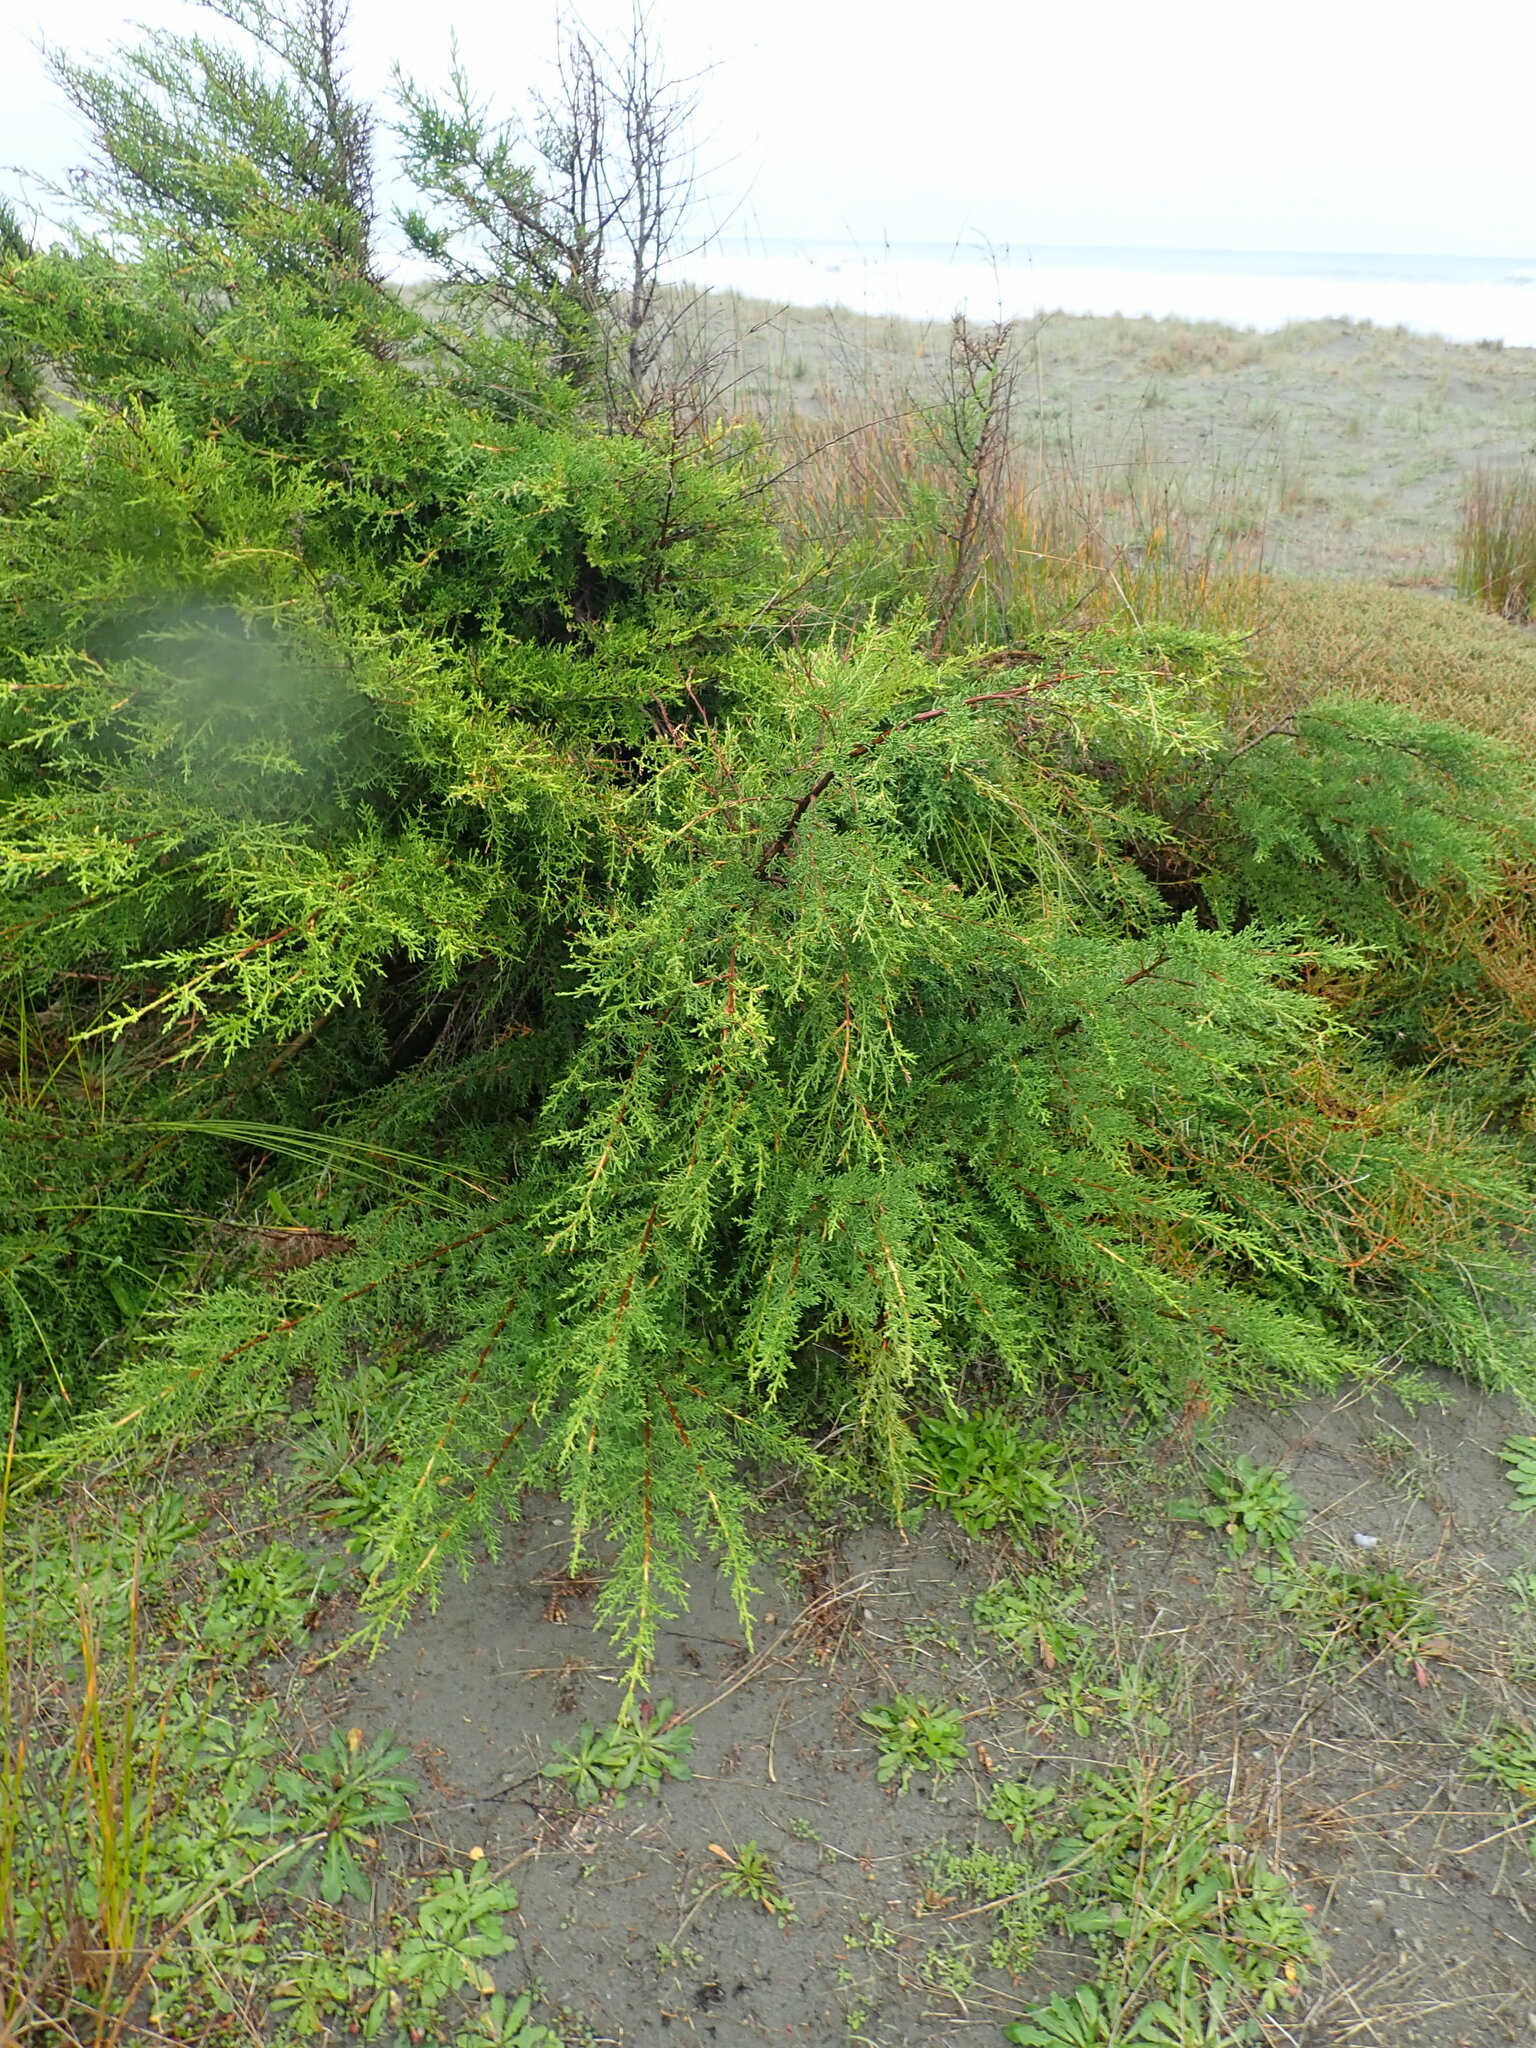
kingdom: Plantae
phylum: Tracheophyta
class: Pinopsida
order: Pinales
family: Cupressaceae
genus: Cupressus
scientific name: Cupressus macrocarpa
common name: Monterey cypress
